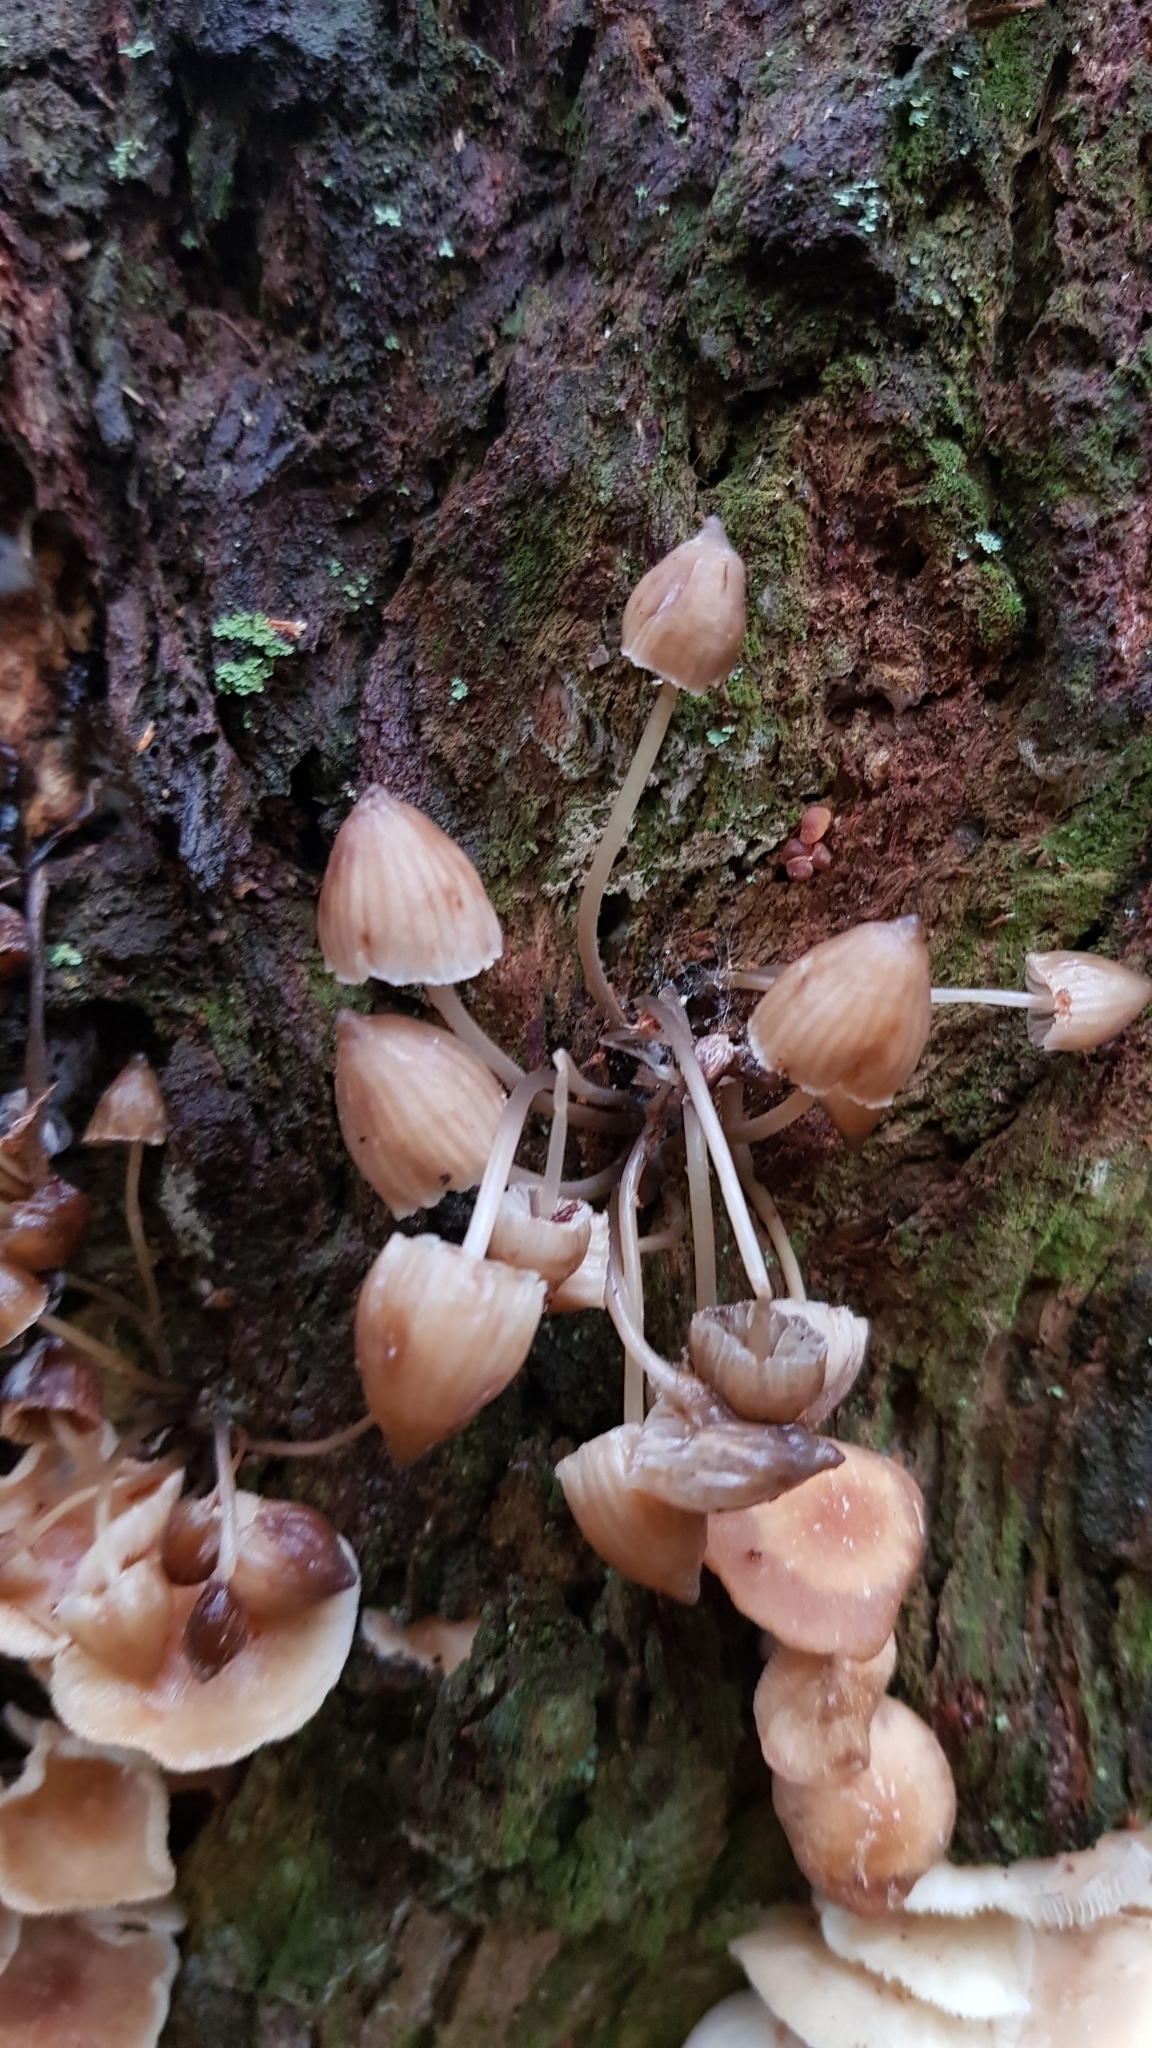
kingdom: Fungi
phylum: Basidiomycota
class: Agaricomycetes
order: Agaricales
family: Mycenaceae
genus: Mycena
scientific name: Mycena subgalericulata
